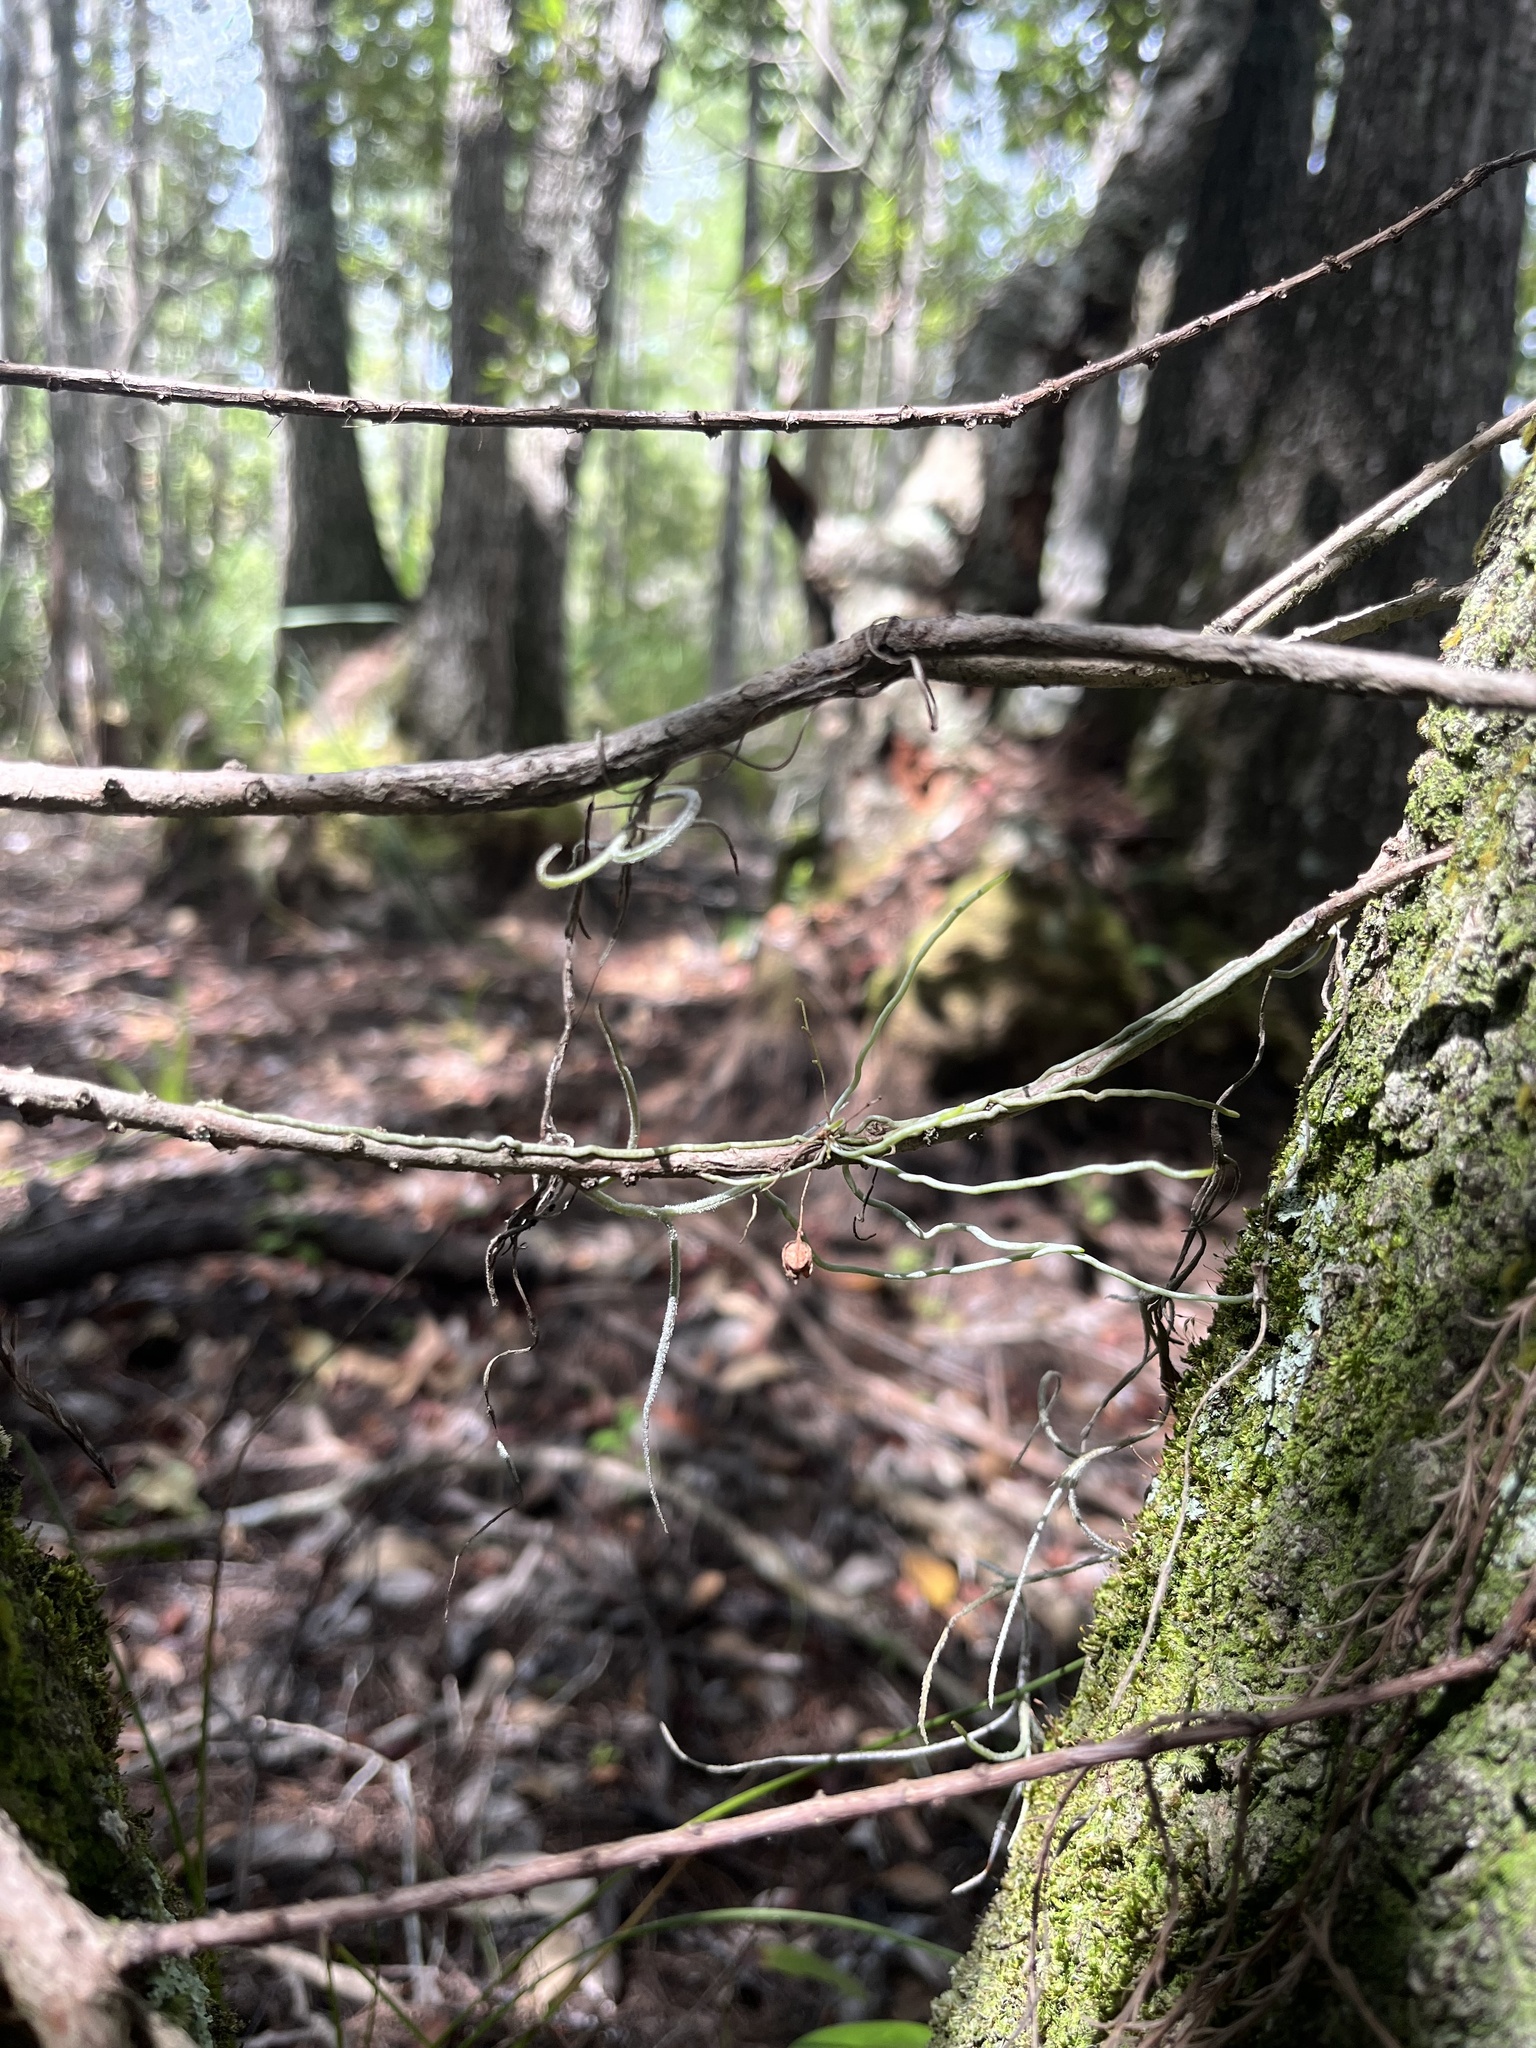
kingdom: Plantae
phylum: Tracheophyta
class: Liliopsida
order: Asparagales
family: Orchidaceae
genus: Dendrophylax
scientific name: Dendrophylax porrectus
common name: Needleroot airplant orchid
